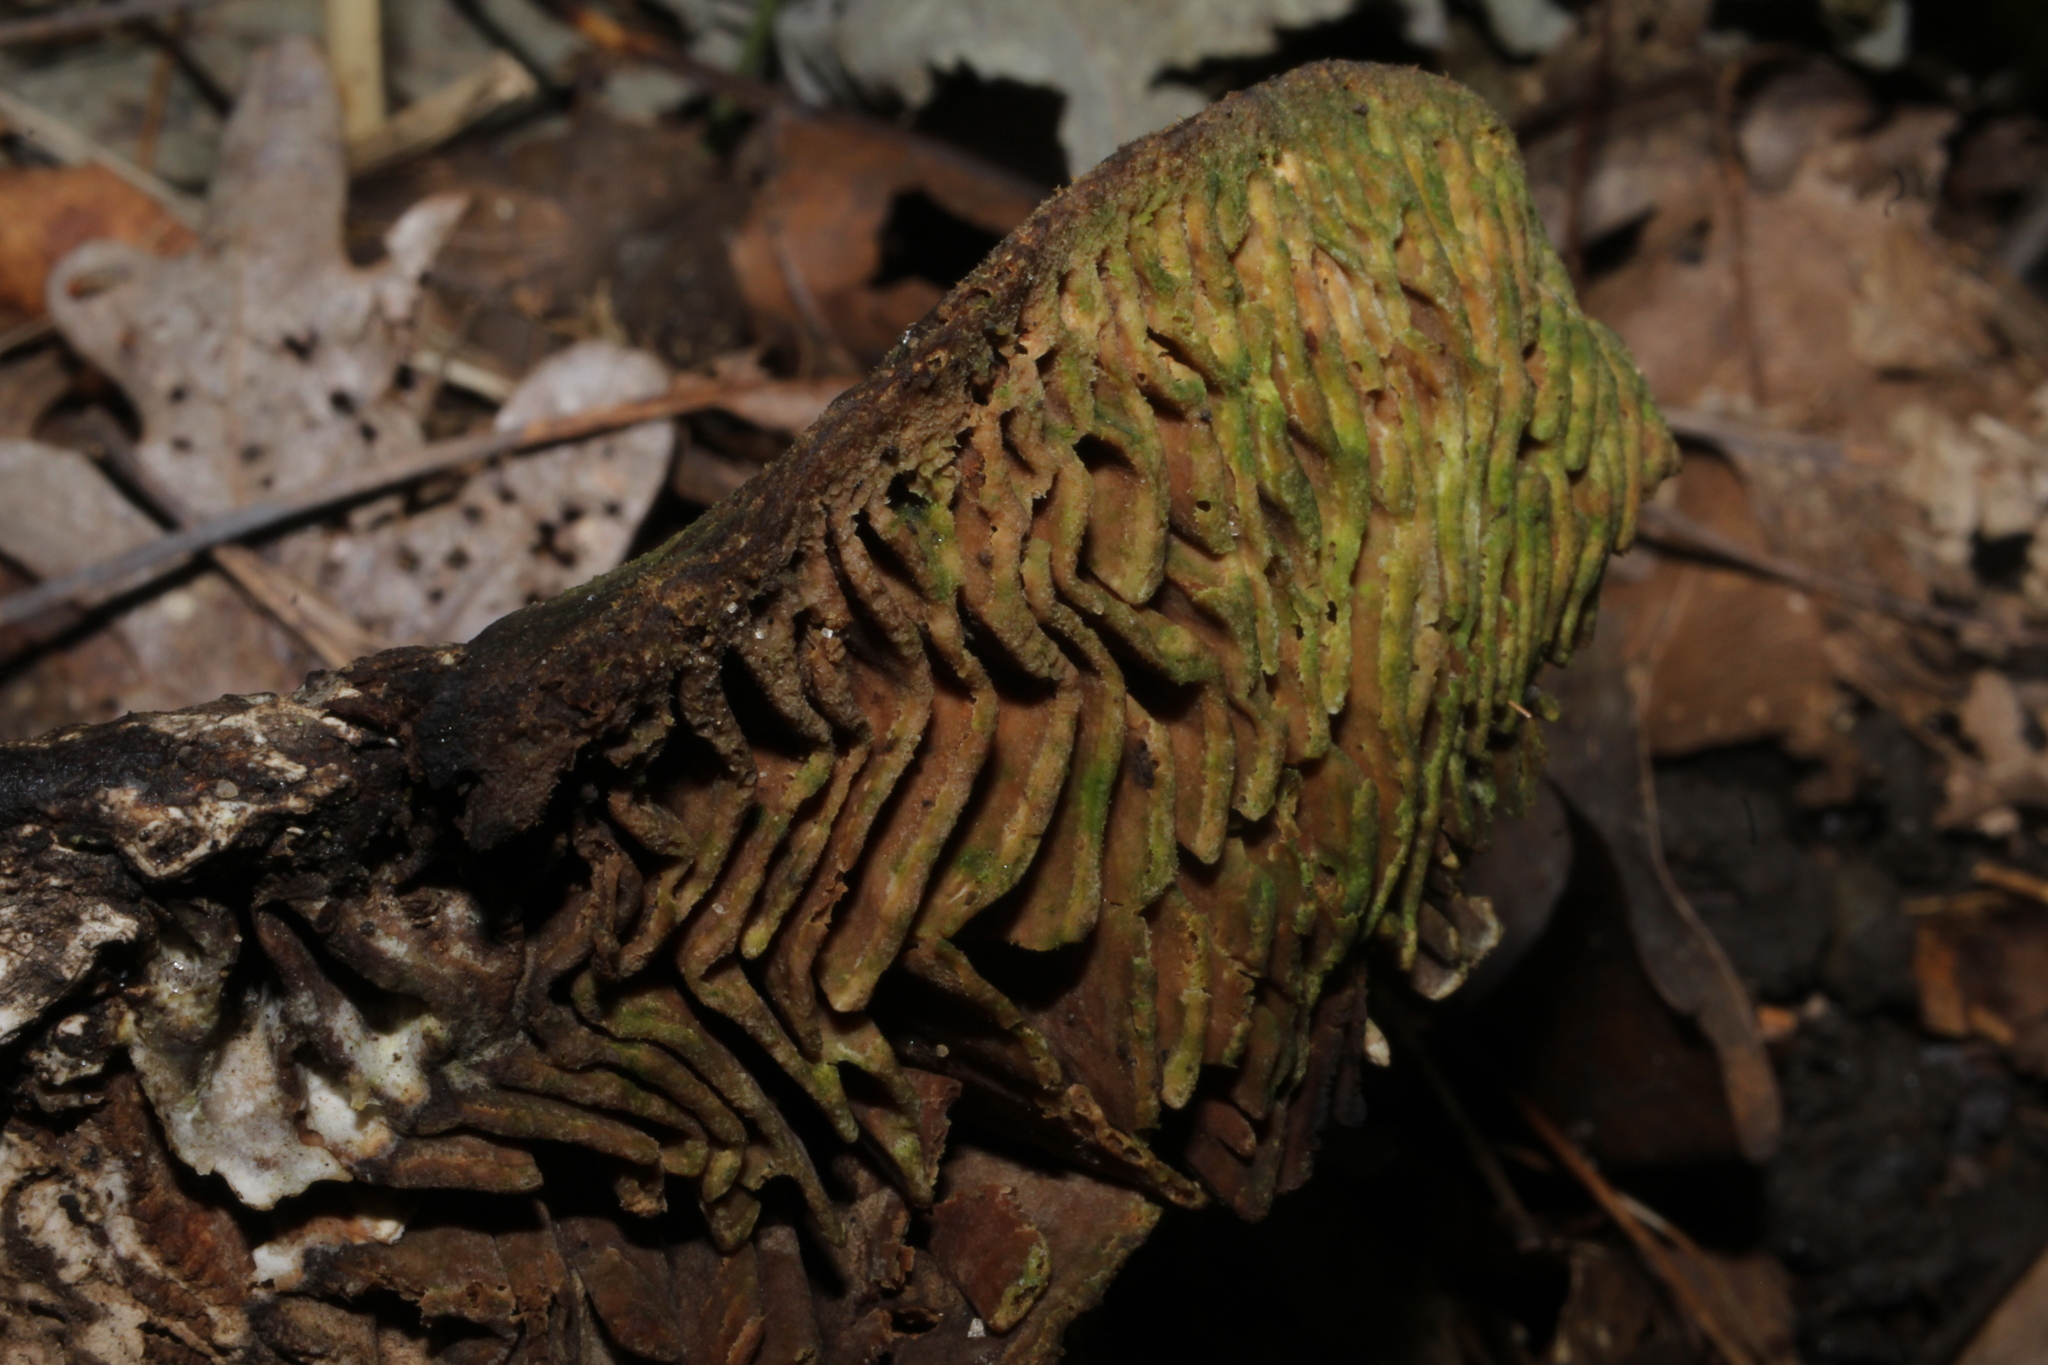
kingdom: Fungi
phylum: Basidiomycota
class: Agaricomycetes
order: Polyporales
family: Fomitopsidaceae
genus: Fomitopsis
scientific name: Fomitopsis
